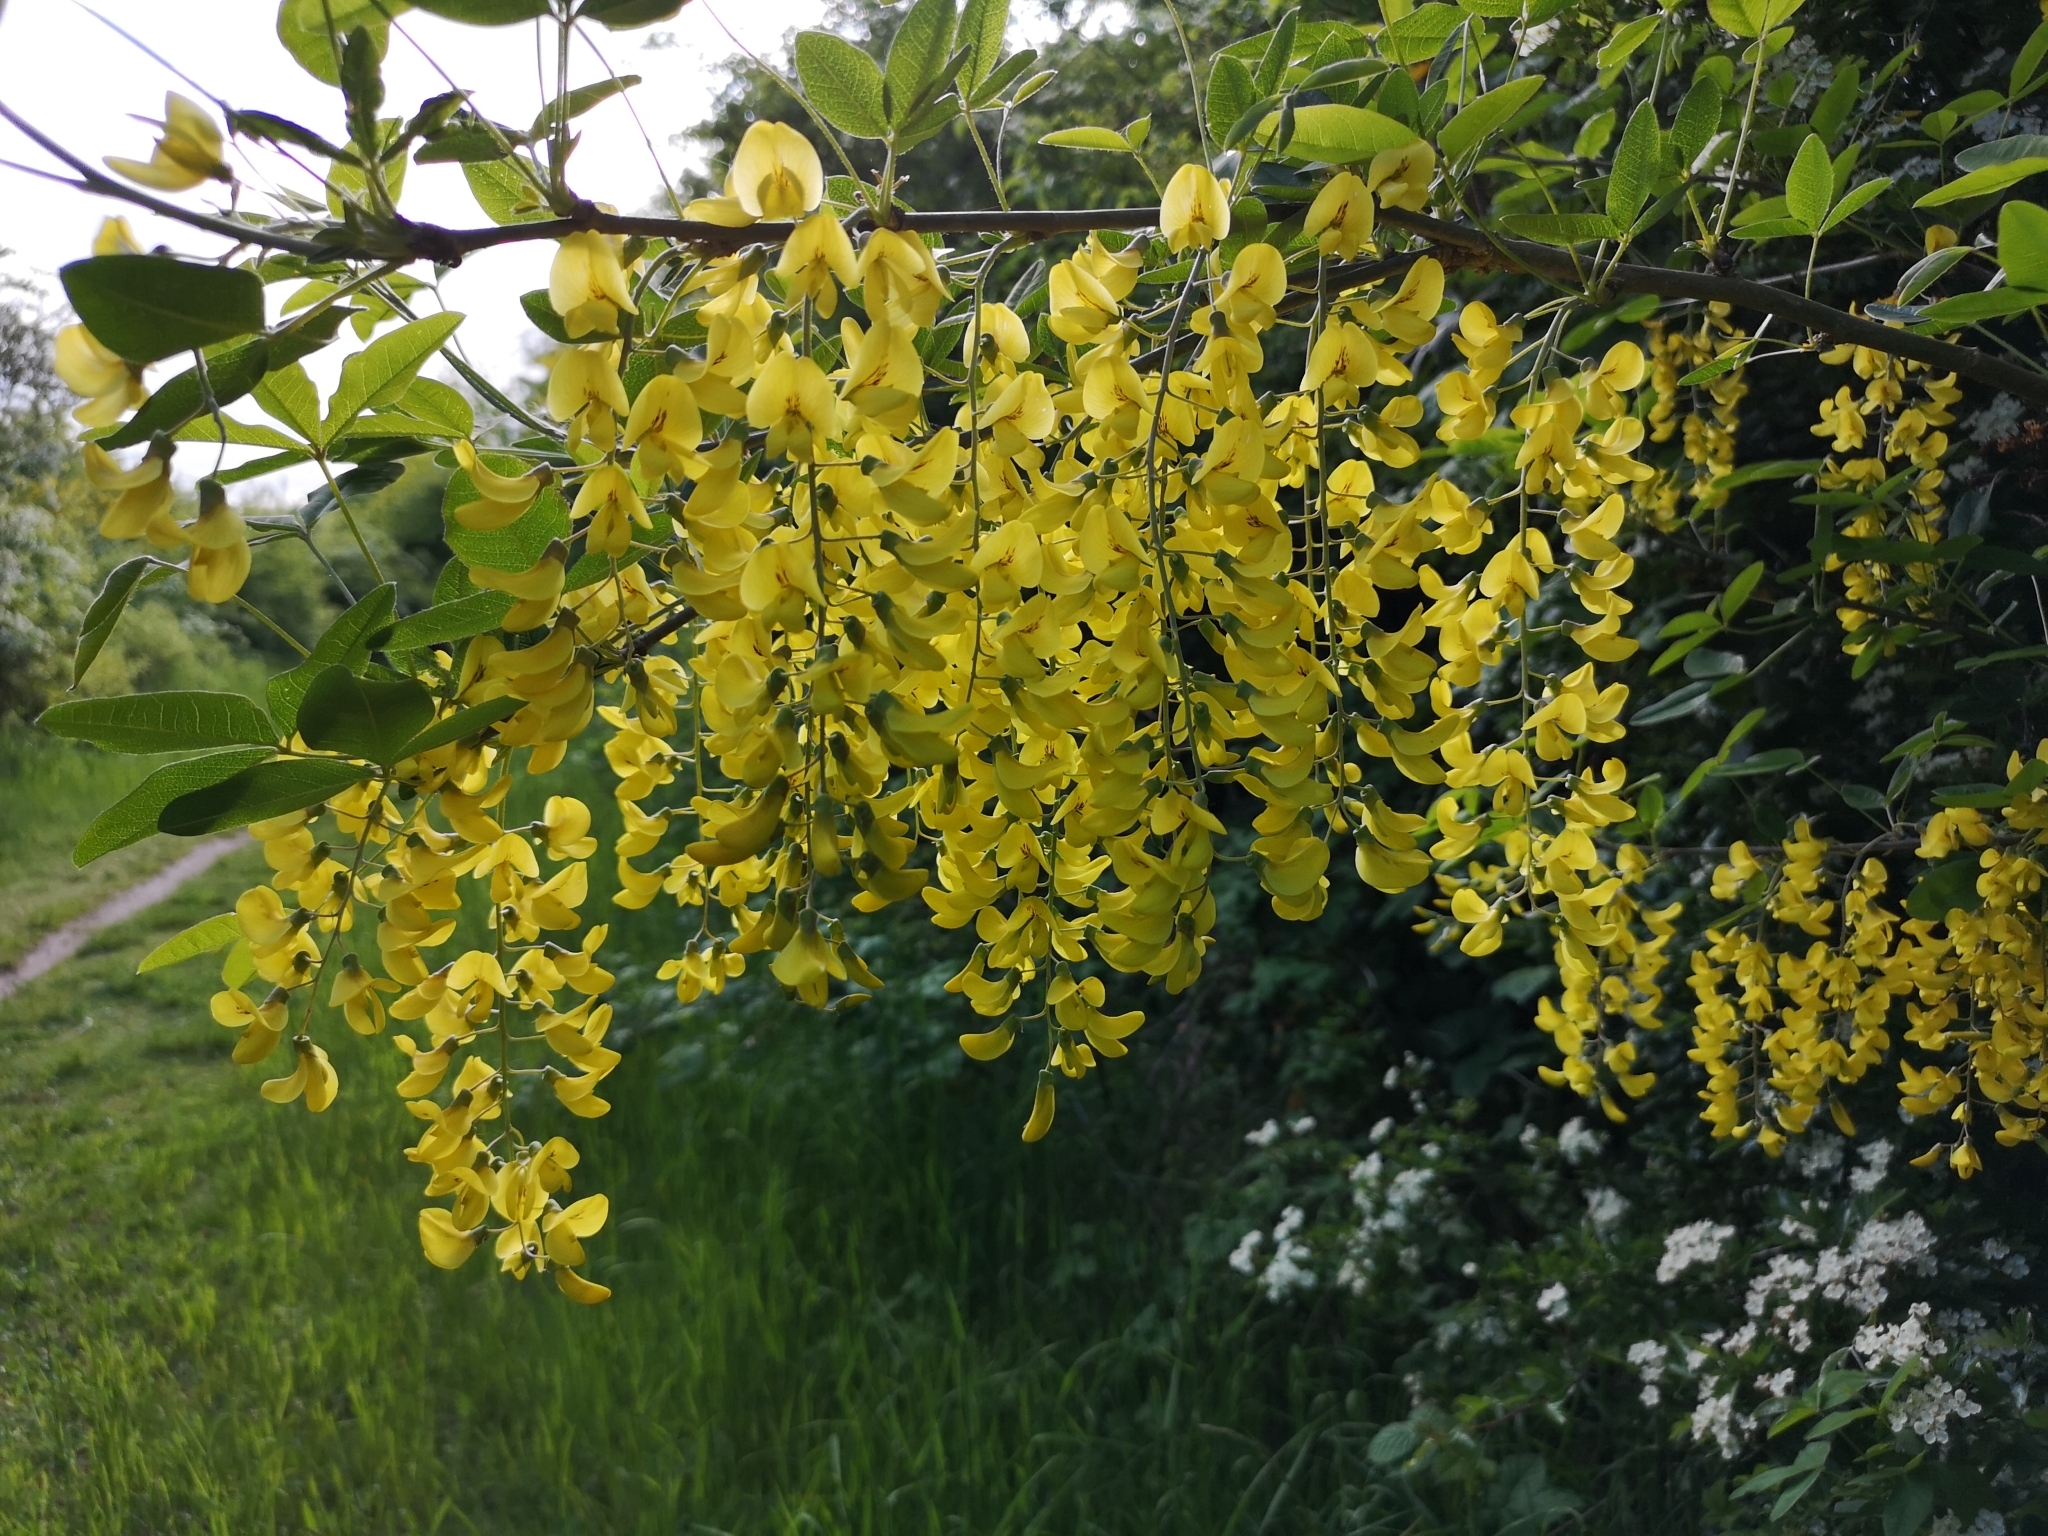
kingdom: Plantae
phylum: Tracheophyta
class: Magnoliopsida
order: Fabales
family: Fabaceae
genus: Laburnum
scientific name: Laburnum anagyroides
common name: Laburnum
